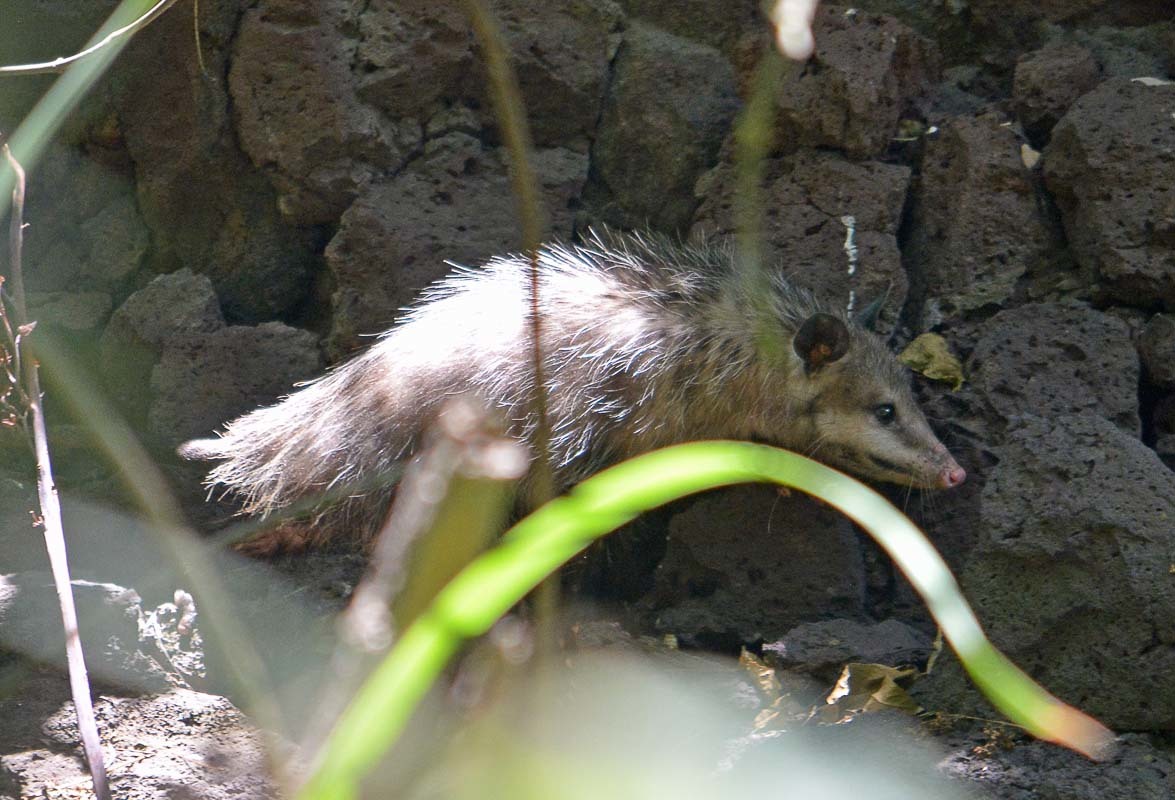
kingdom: Animalia
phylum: Chordata
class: Mammalia
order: Didelphimorphia
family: Didelphidae
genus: Didelphis
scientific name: Didelphis virginiana
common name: Virginia opossum
